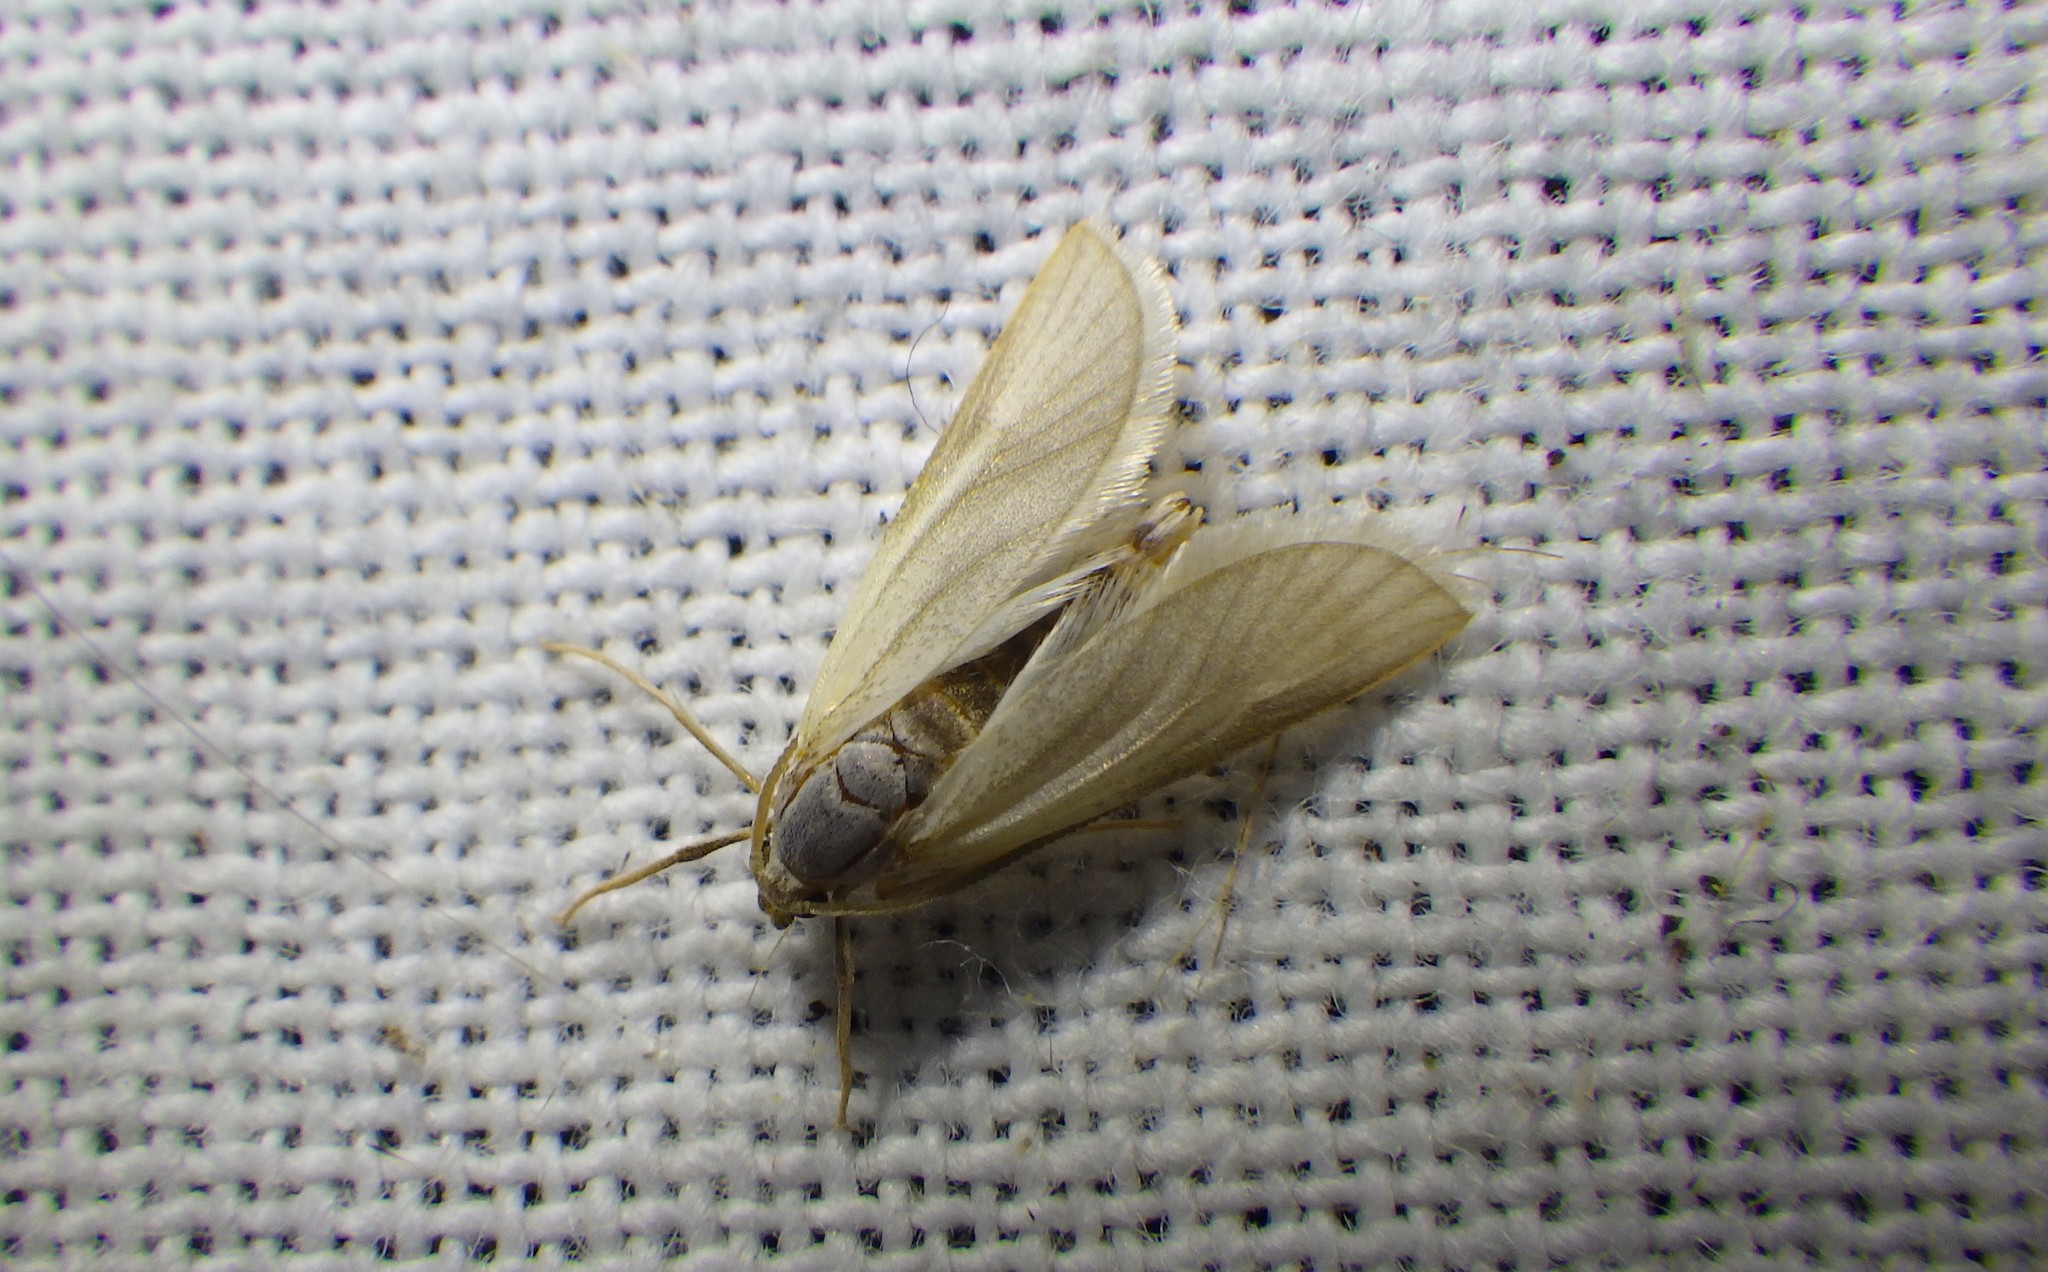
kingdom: Animalia
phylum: Arthropoda
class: Insecta
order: Lepidoptera
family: Crambidae
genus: Acentria
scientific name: Acentria ephemerella
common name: European water moth
